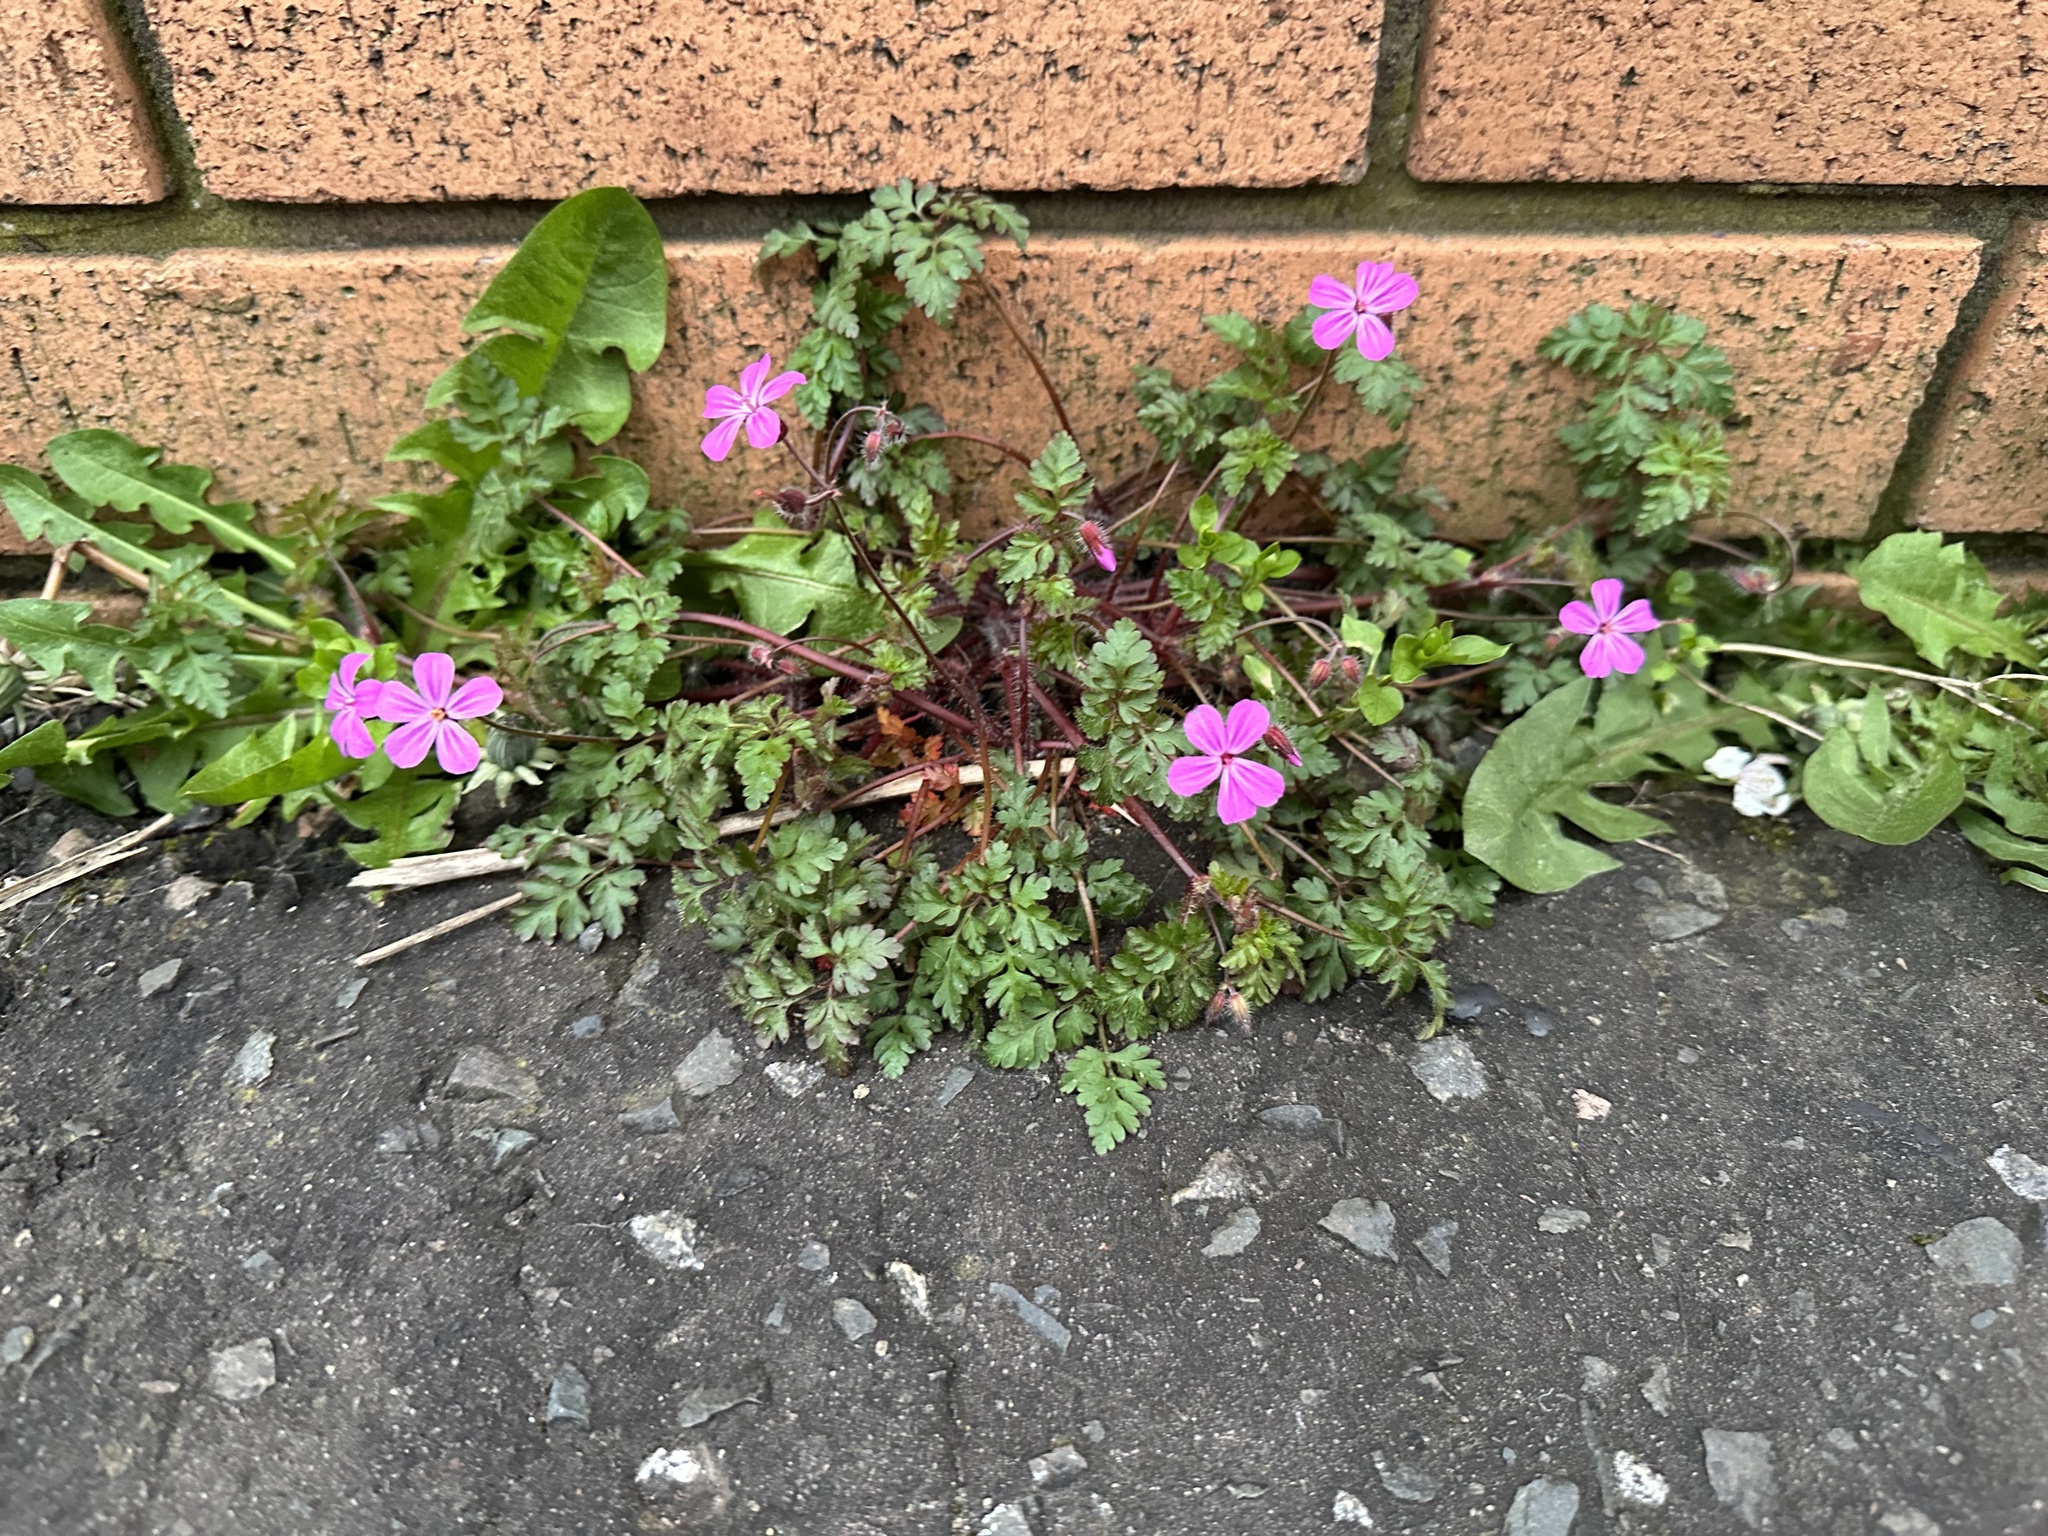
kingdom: Plantae
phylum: Tracheophyta
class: Magnoliopsida
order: Geraniales
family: Geraniaceae
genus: Geranium
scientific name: Geranium robertianum
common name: Herb-robert
